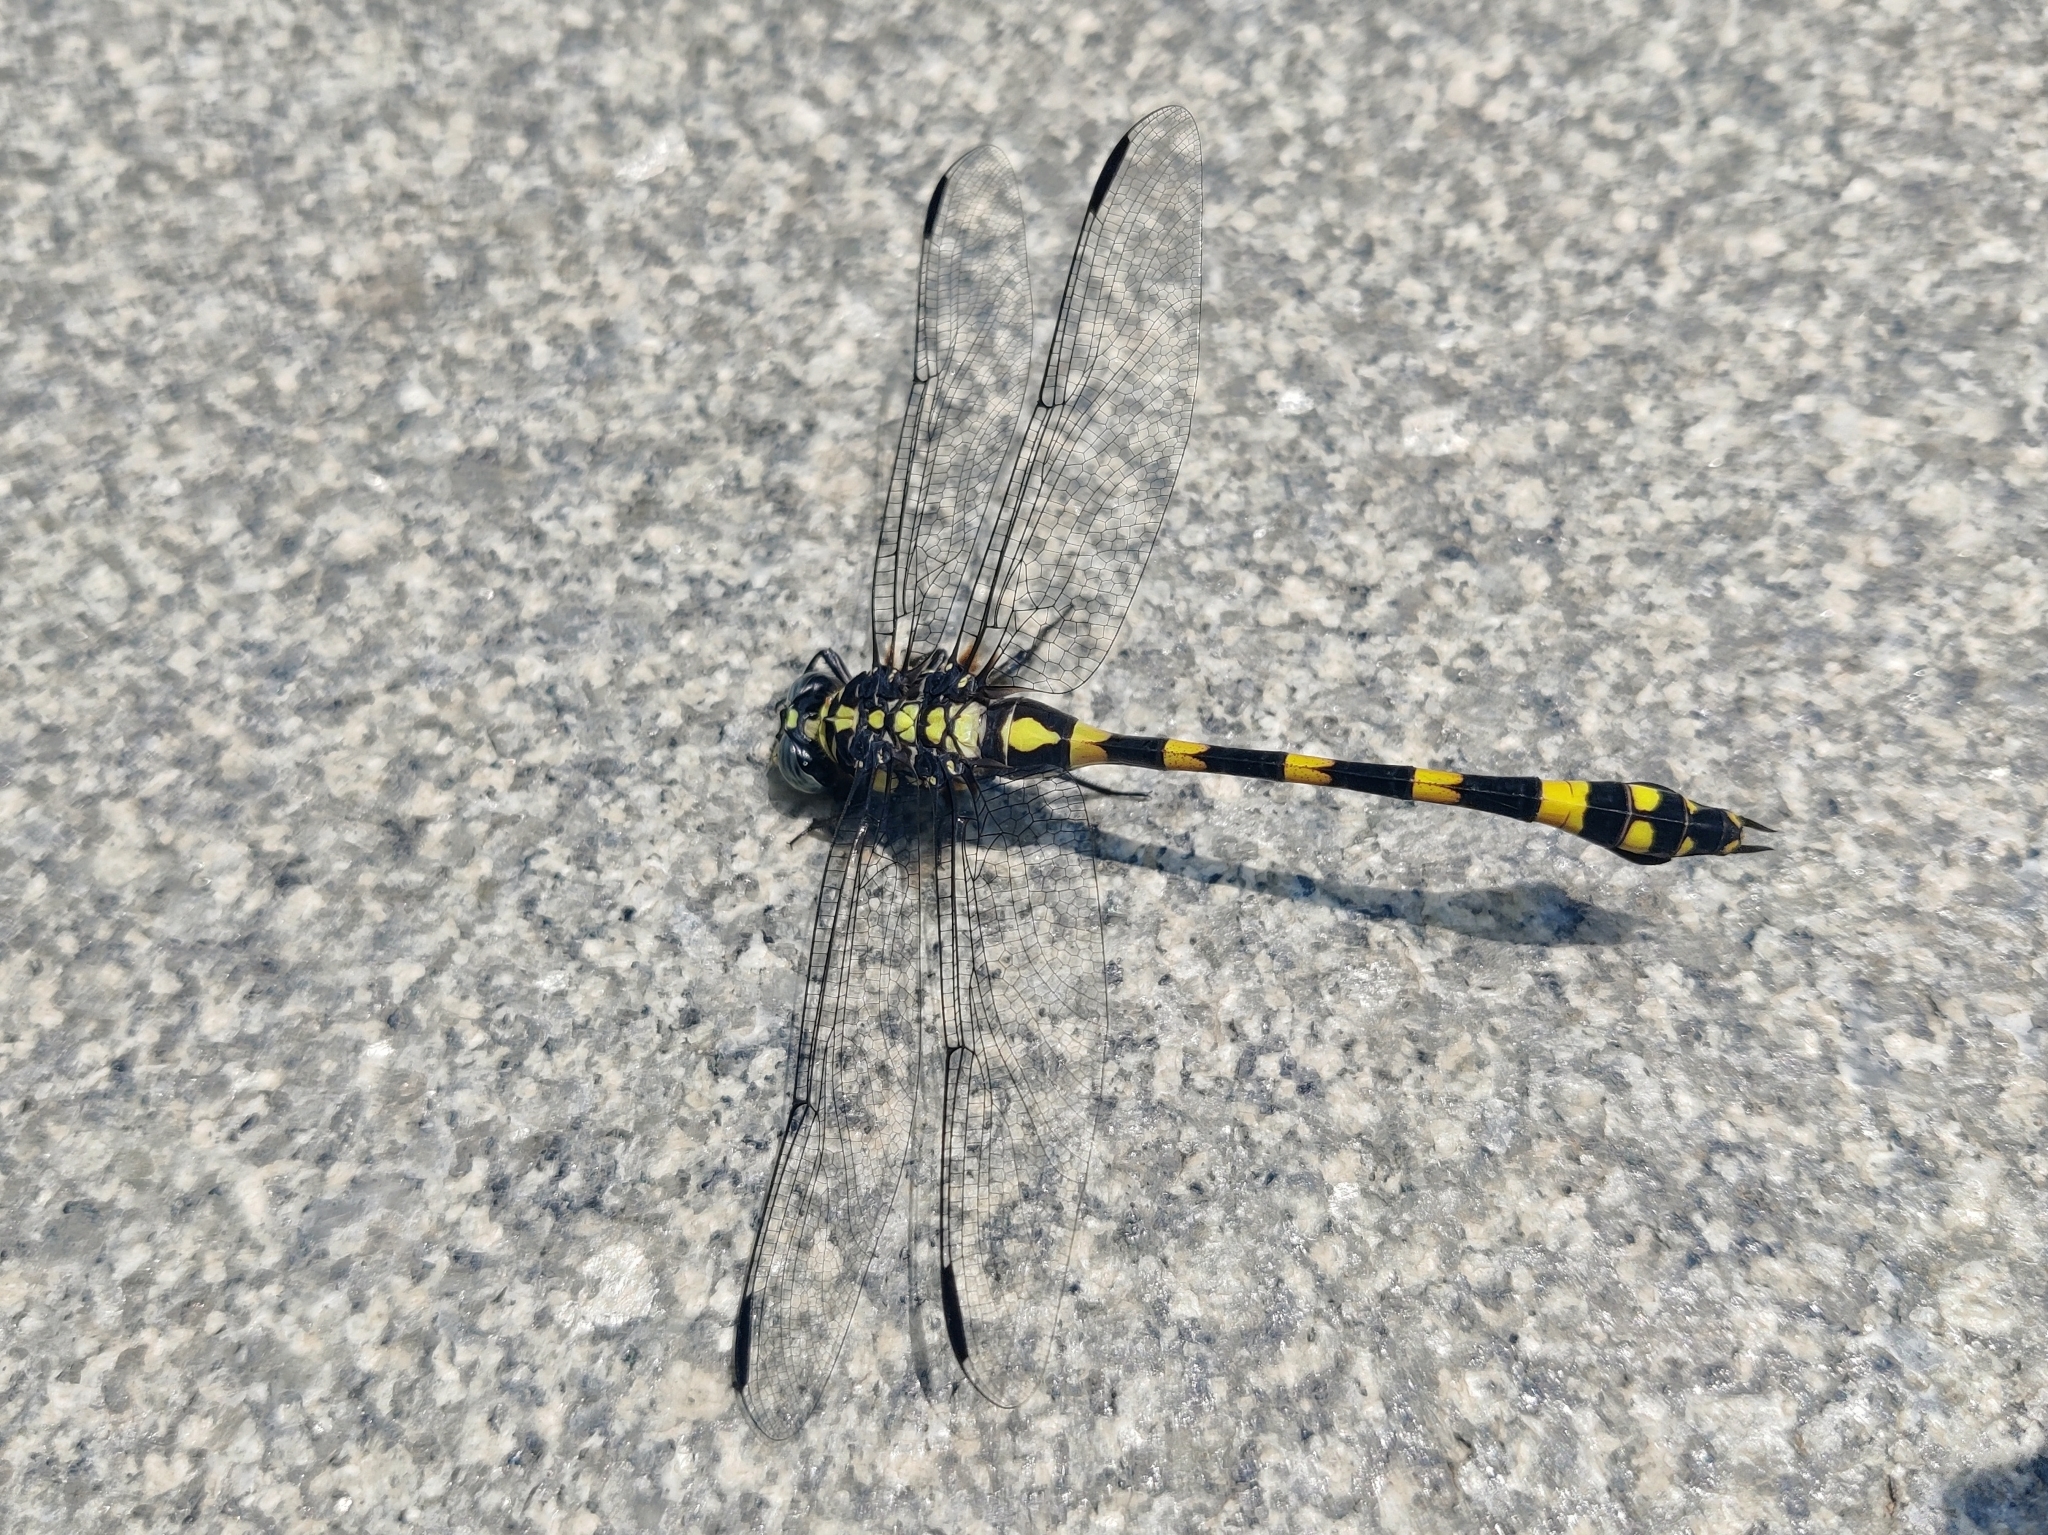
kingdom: Animalia
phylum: Arthropoda
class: Insecta
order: Odonata
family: Gomphidae
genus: Ictinogomphus
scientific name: Ictinogomphus rapax
